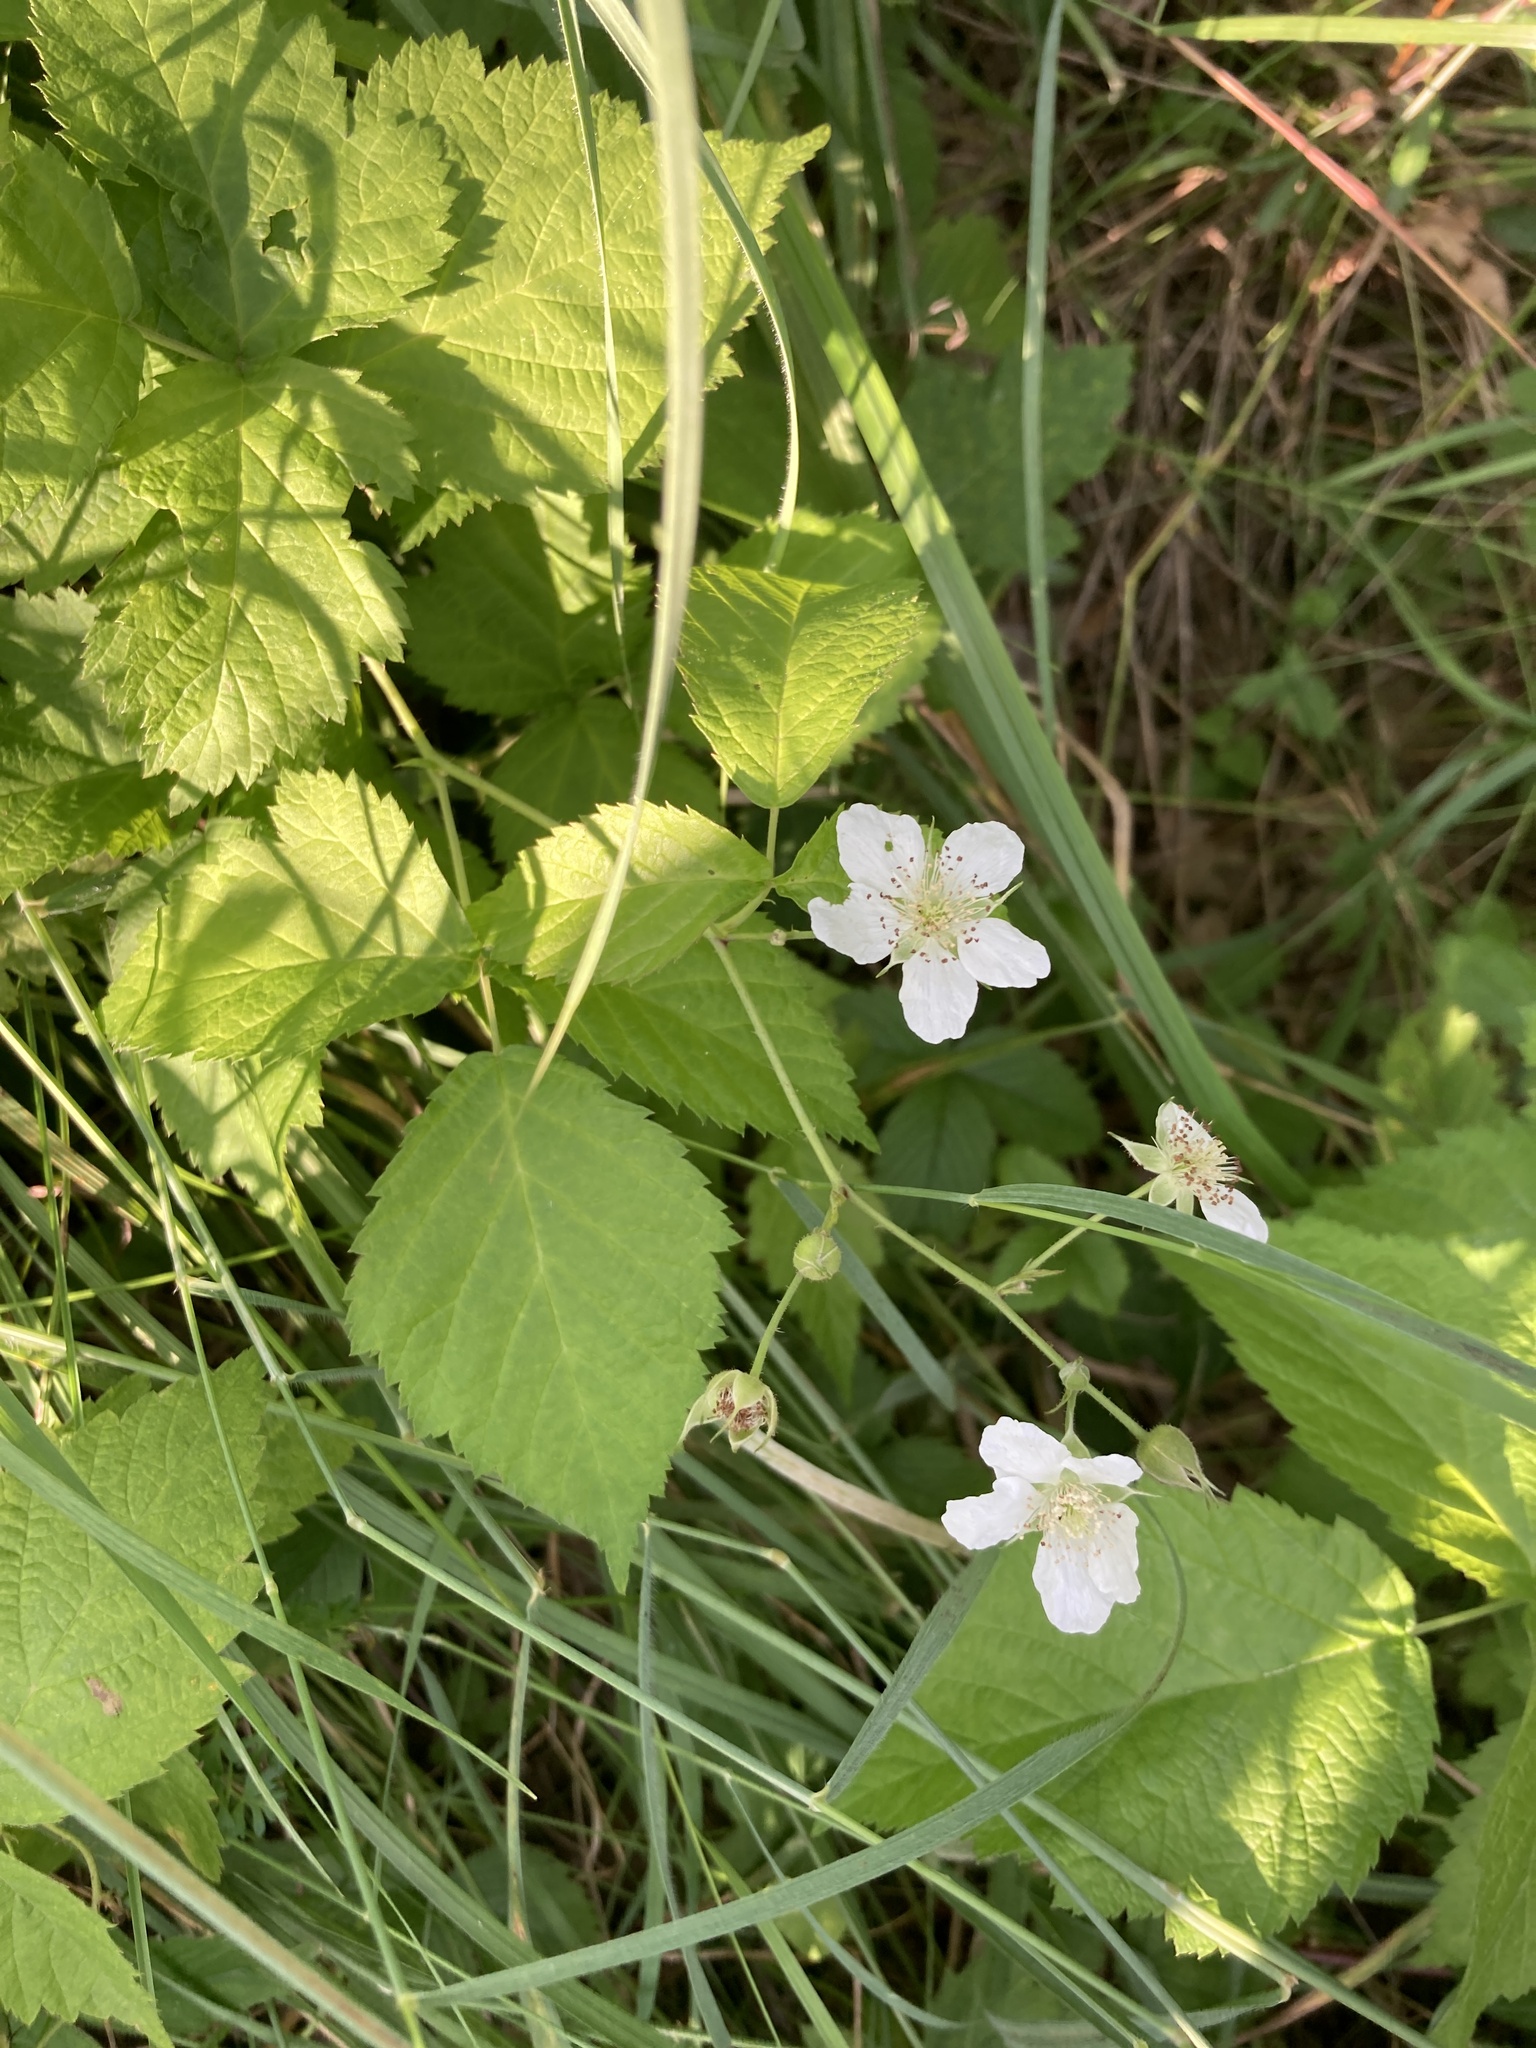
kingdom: Plantae
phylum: Tracheophyta
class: Magnoliopsida
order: Rosales
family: Rosaceae
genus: Rubus
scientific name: Rubus caesius
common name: Dewberry
